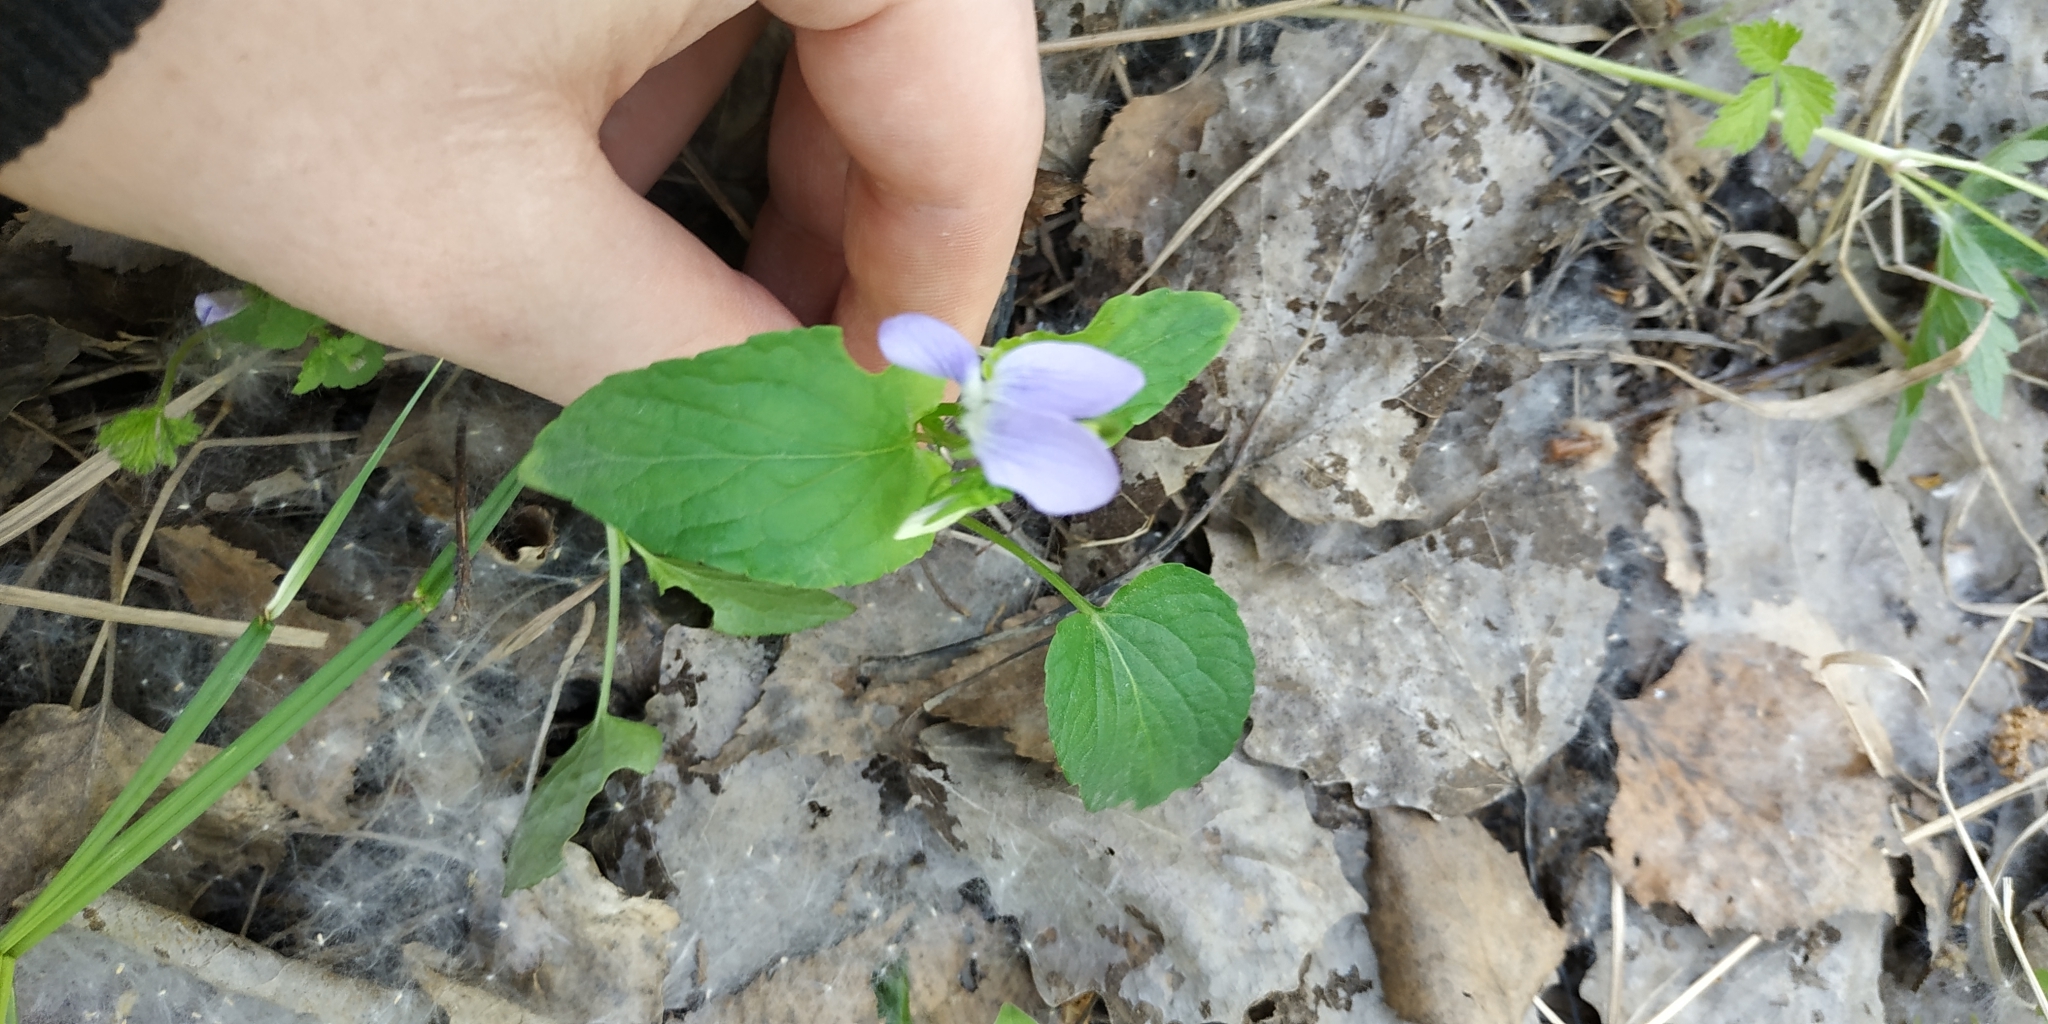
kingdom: Plantae
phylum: Tracheophyta
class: Magnoliopsida
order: Malpighiales
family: Violaceae
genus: Viola
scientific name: Viola
